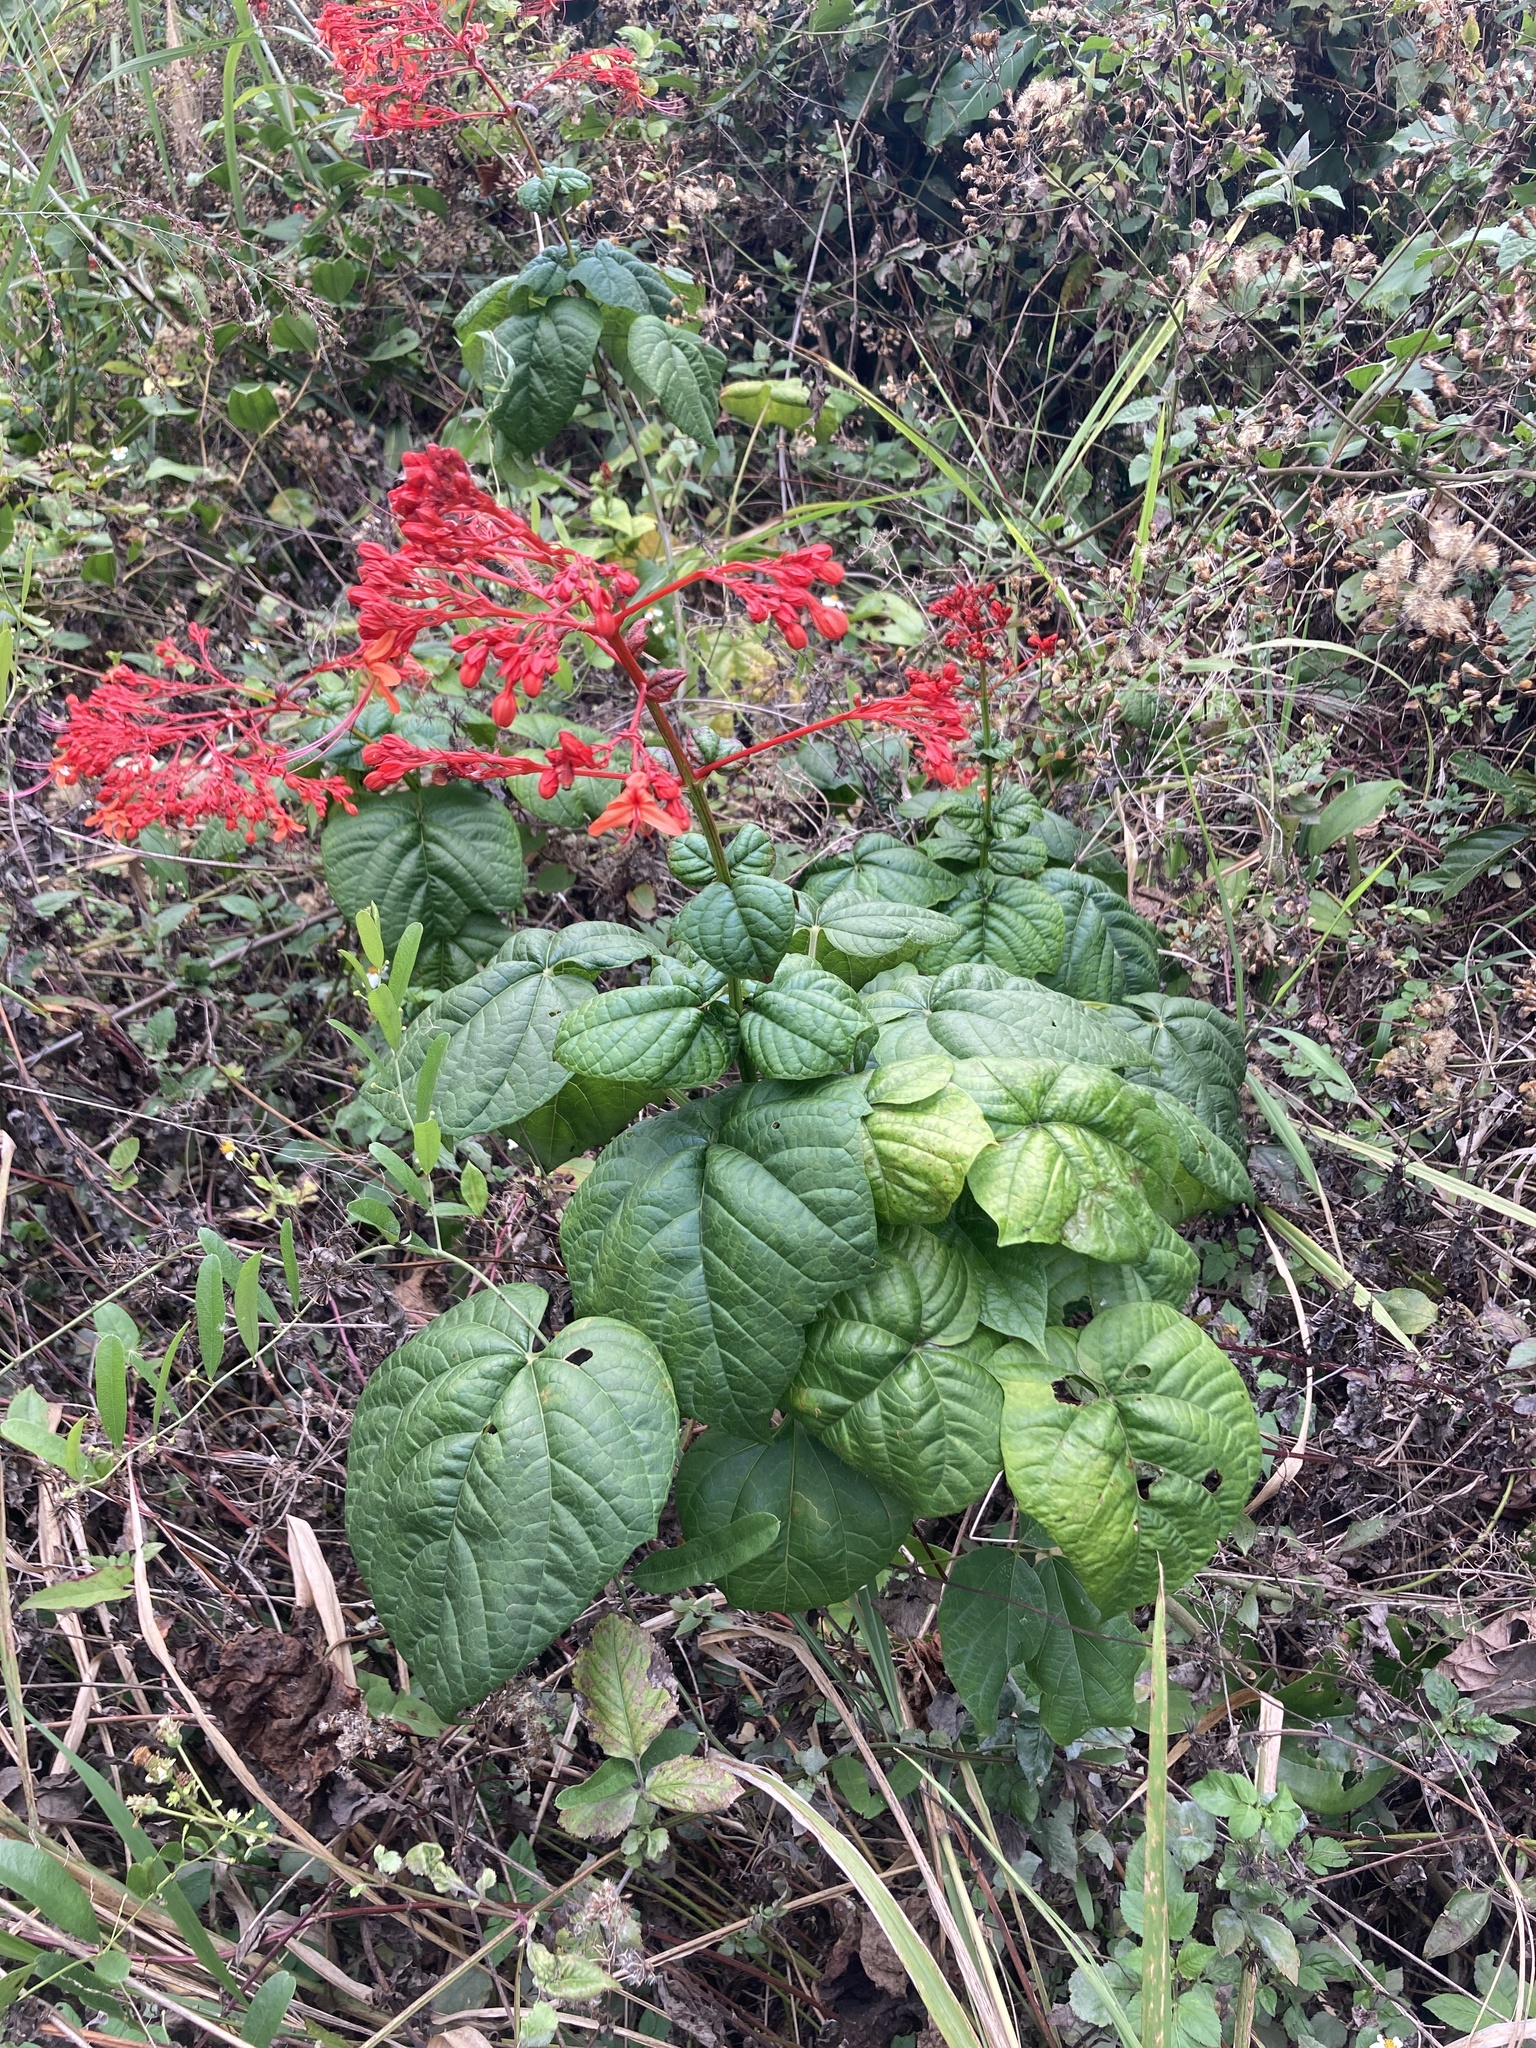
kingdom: Plantae
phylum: Tracheophyta
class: Magnoliopsida
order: Lamiales
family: Lamiaceae
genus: Clerodendrum
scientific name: Clerodendrum japonicum
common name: Japanese glorybower
